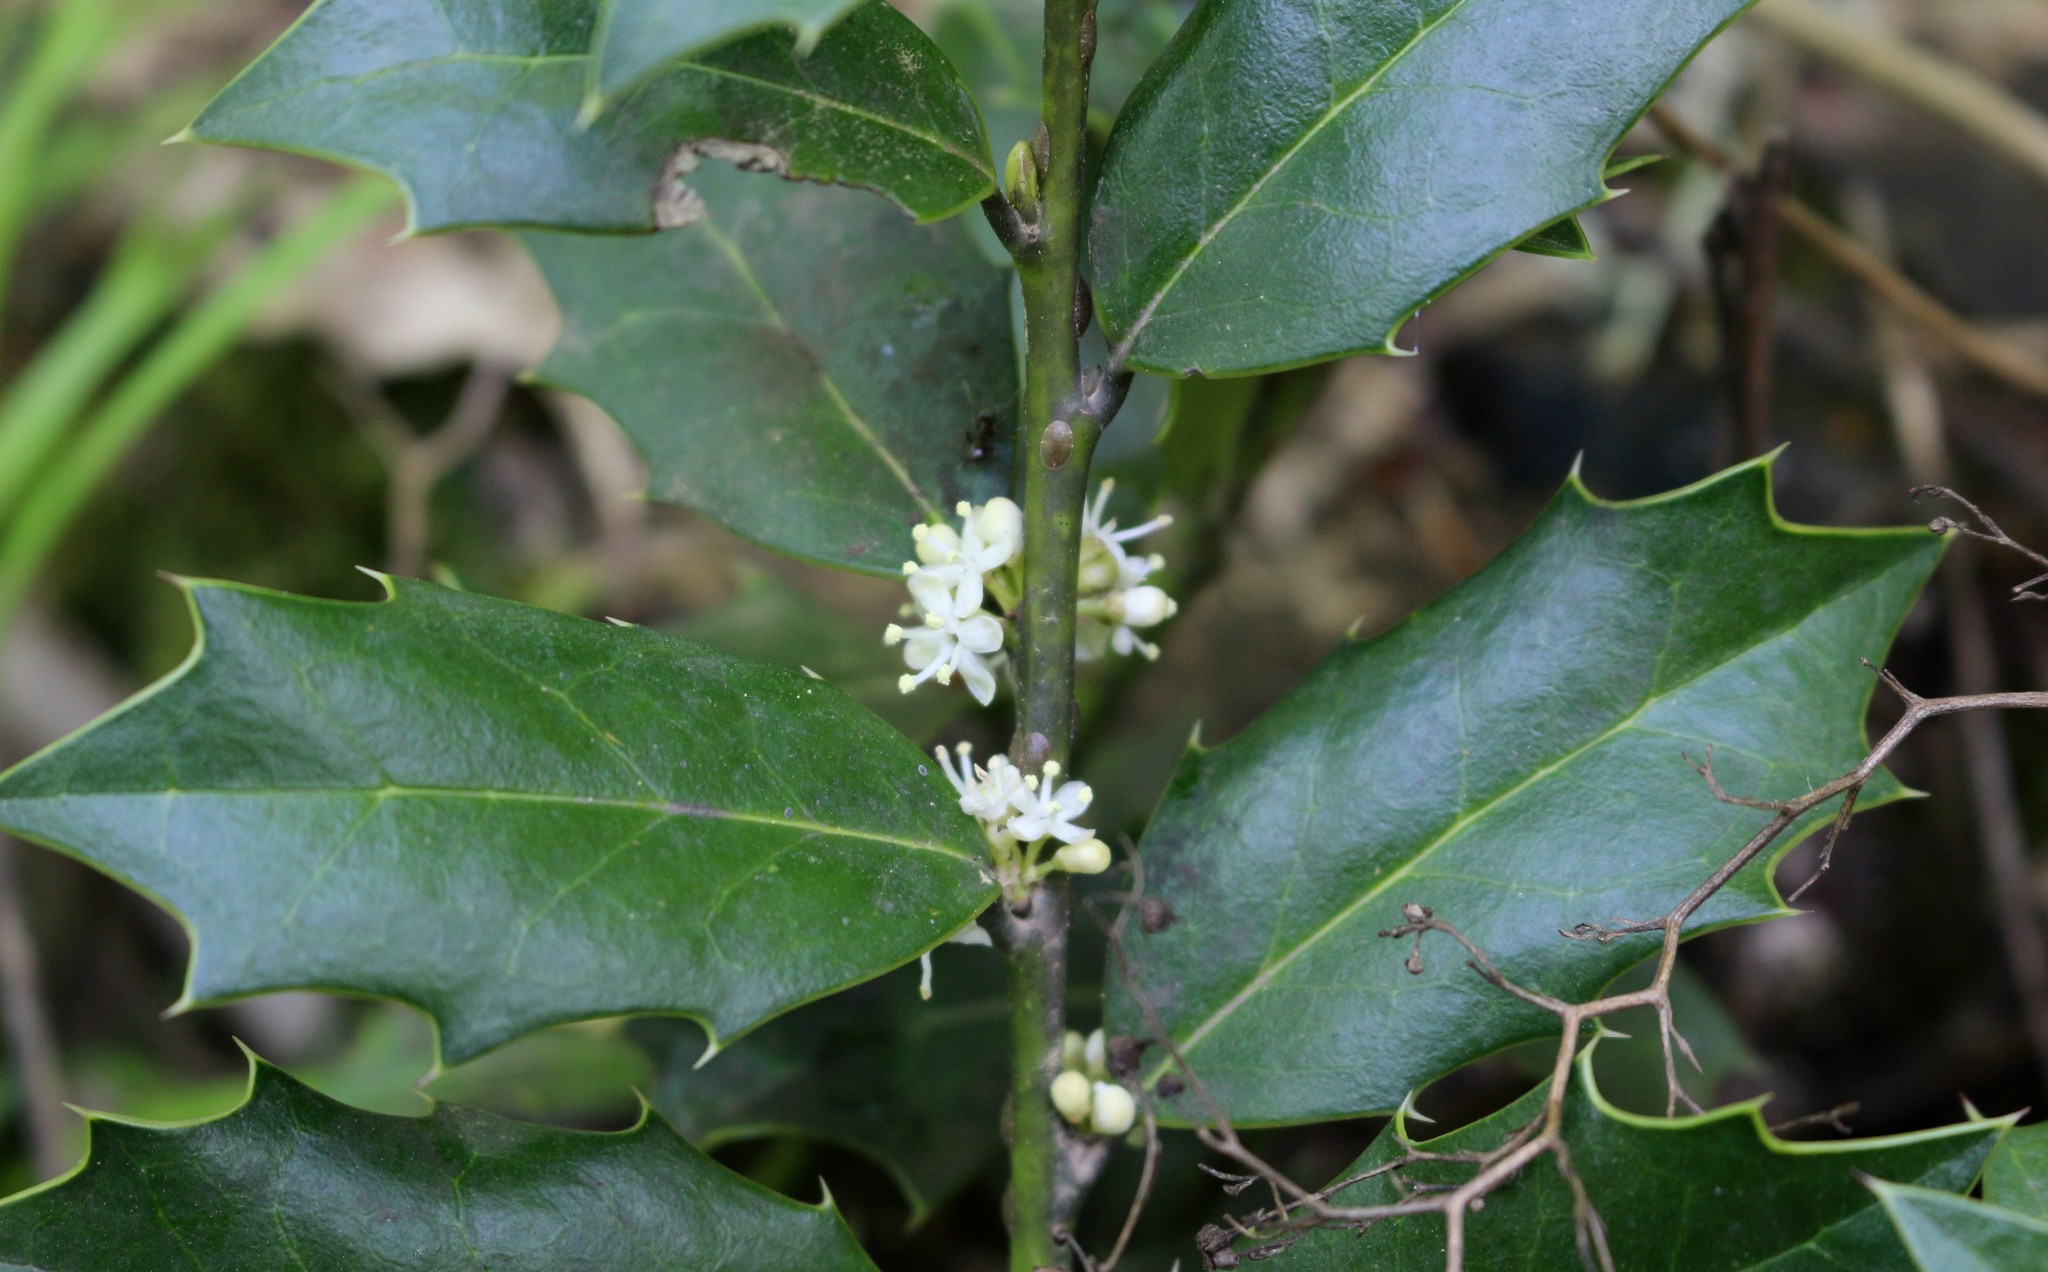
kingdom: Plantae
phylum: Tracheophyta
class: Magnoliopsida
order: Aquifoliales
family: Aquifoliaceae
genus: Ilex
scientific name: Ilex colchica
